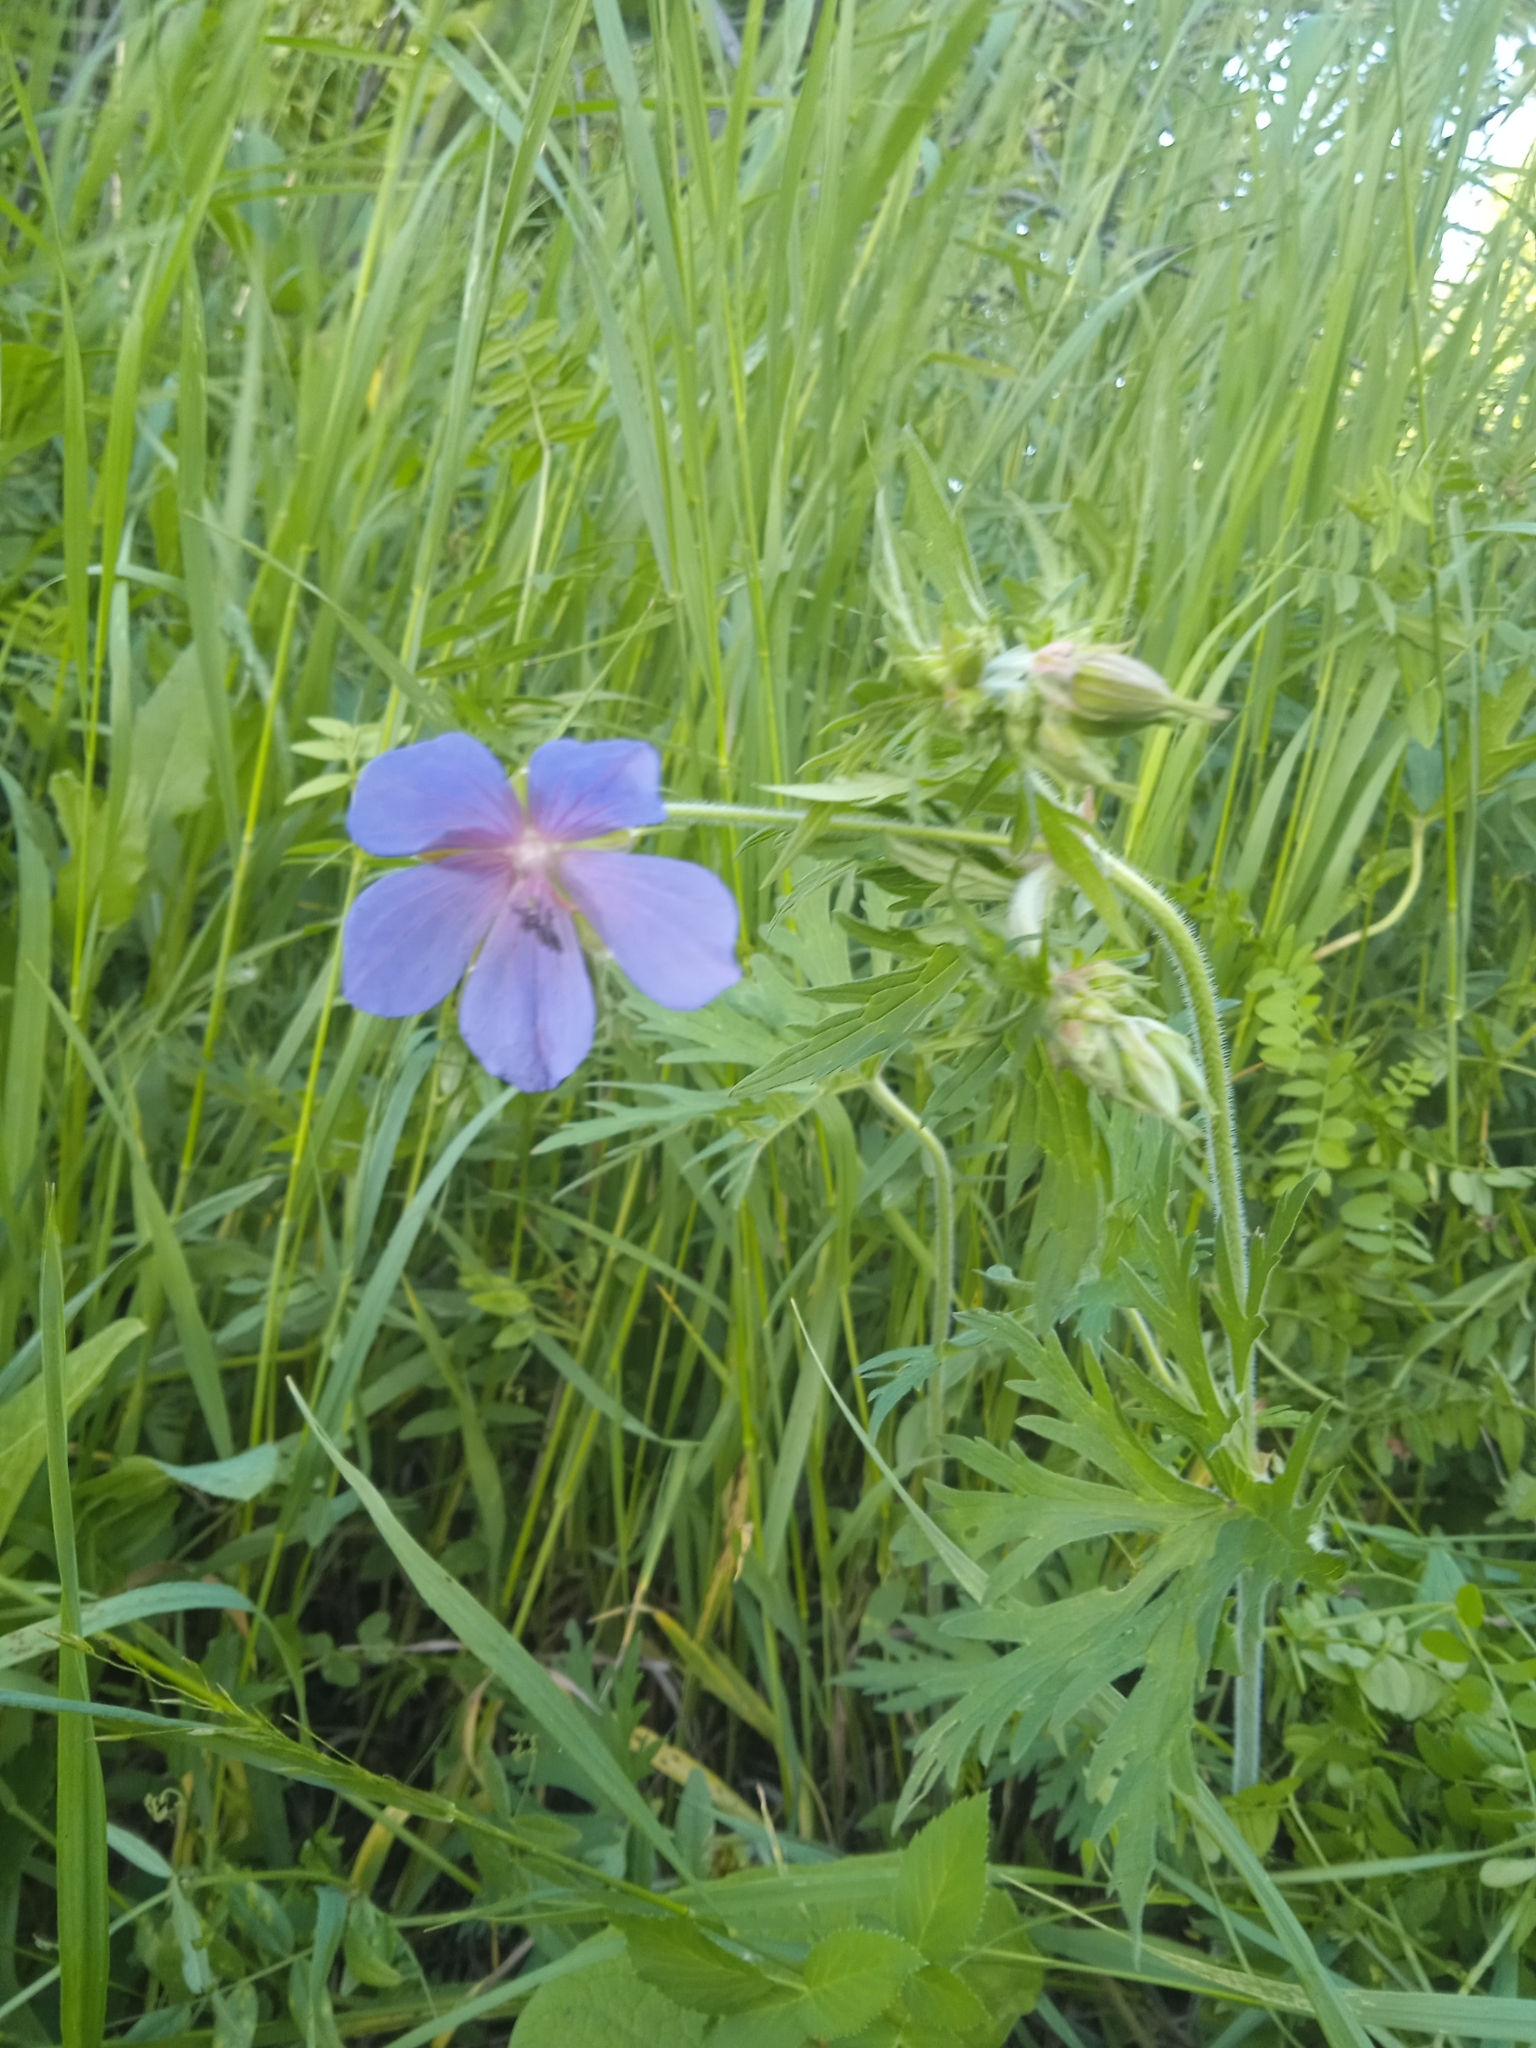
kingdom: Plantae
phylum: Tracheophyta
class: Magnoliopsida
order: Geraniales
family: Geraniaceae
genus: Geranium
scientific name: Geranium pratense
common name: Meadow crane's-bill
